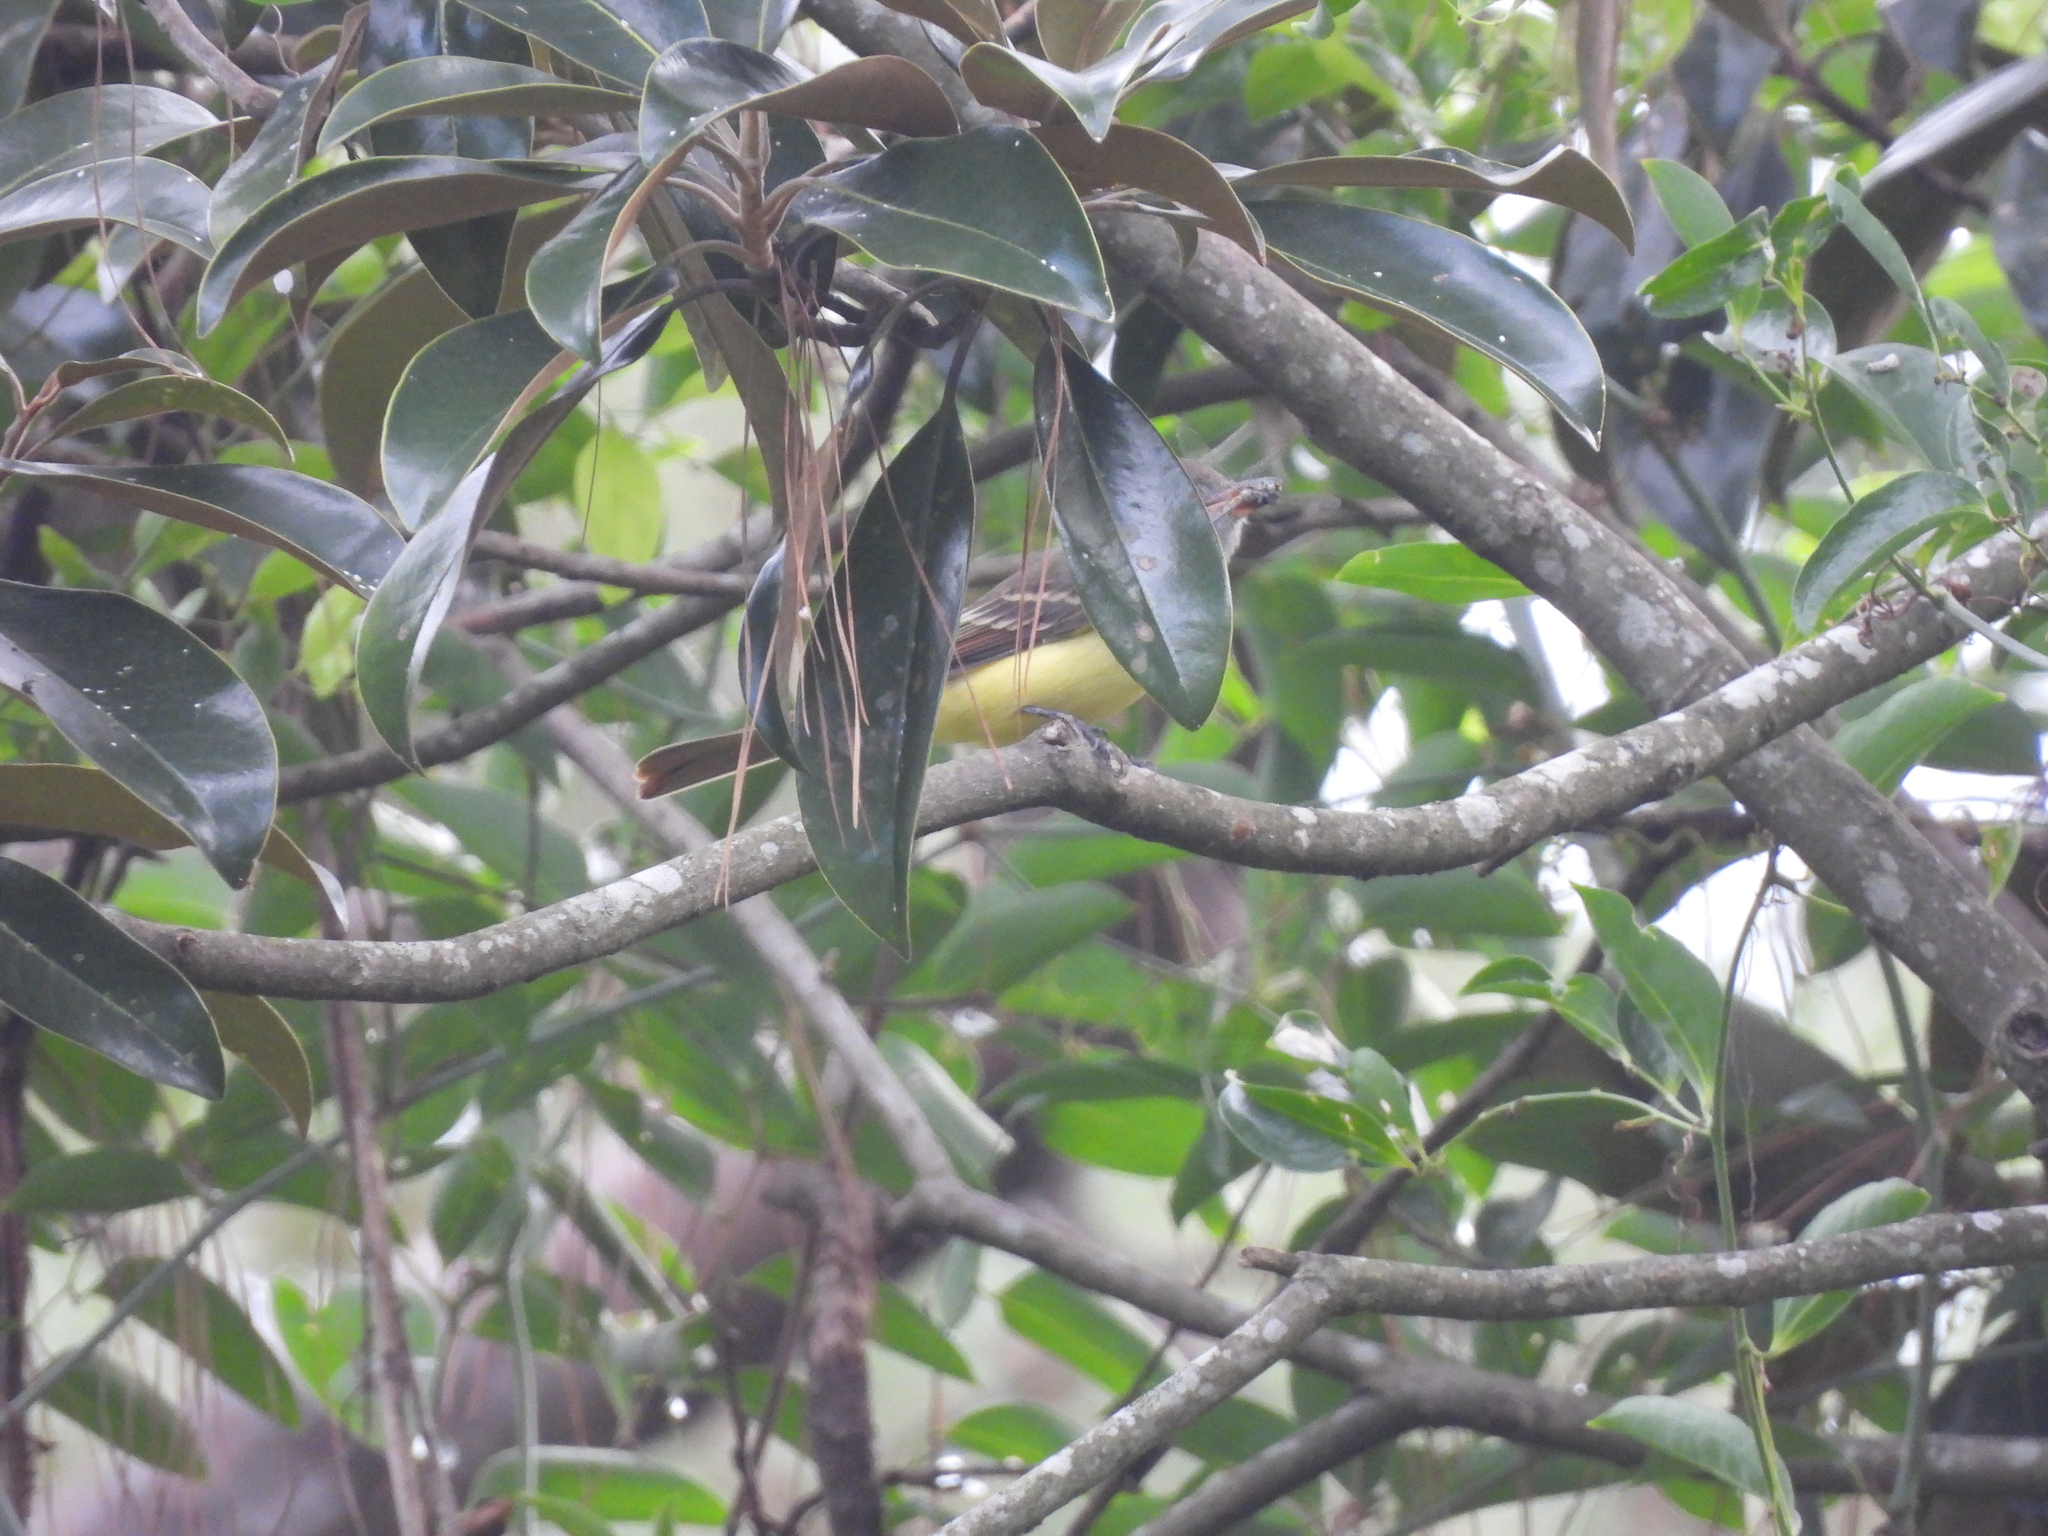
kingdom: Animalia
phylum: Chordata
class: Aves
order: Passeriformes
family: Tyrannidae
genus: Myiarchus
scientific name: Myiarchus crinitus
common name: Great crested flycatcher
